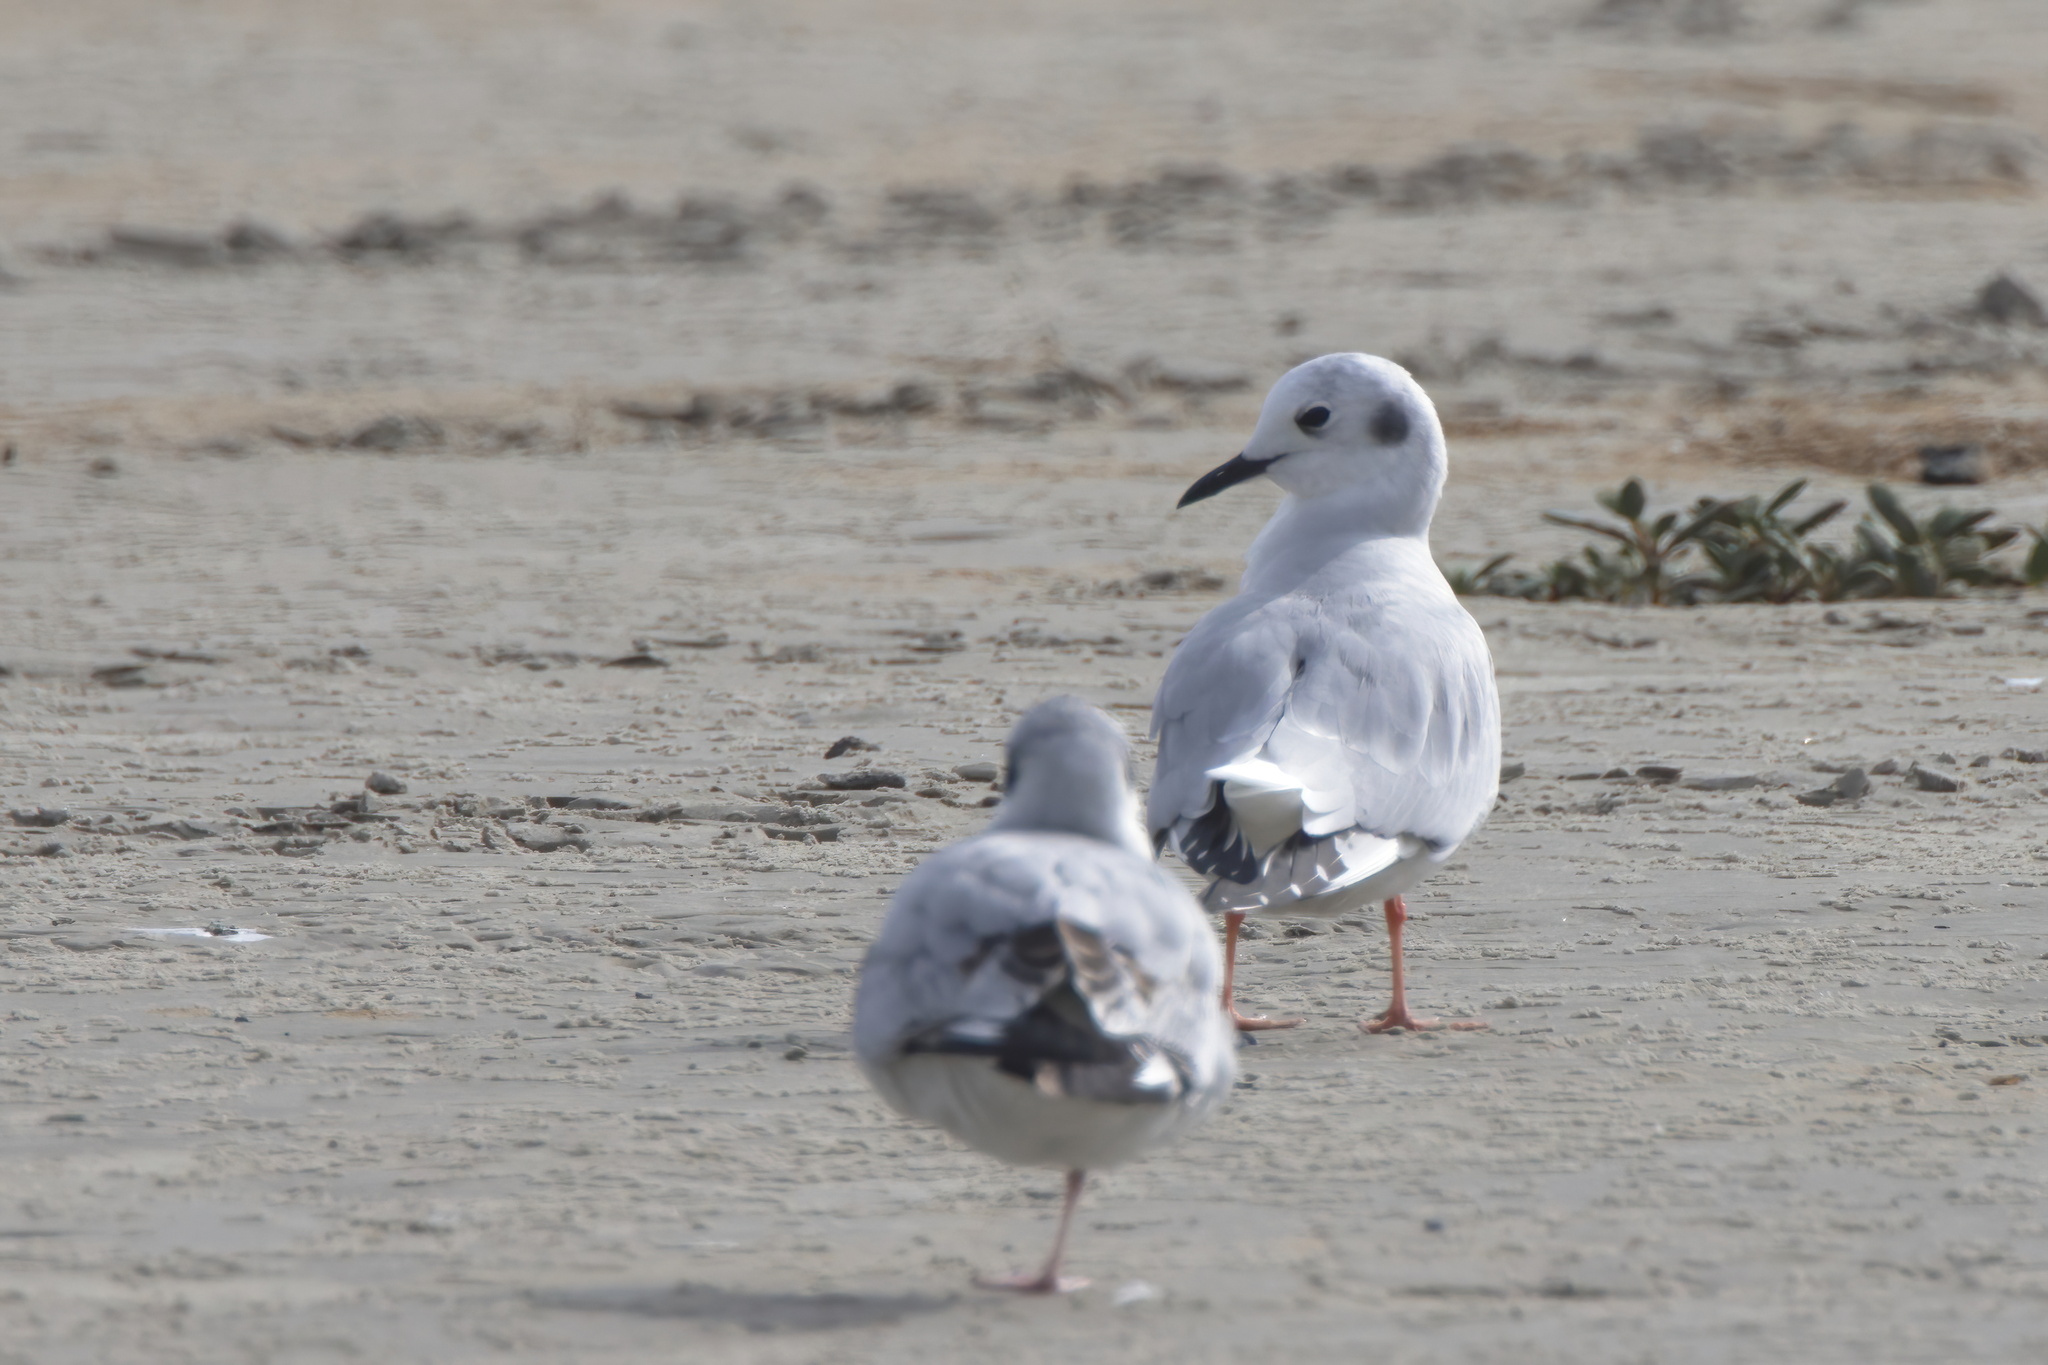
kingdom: Animalia
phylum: Chordata
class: Aves
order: Charadriiformes
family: Laridae
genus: Chroicocephalus
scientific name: Chroicocephalus philadelphia
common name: Bonaparte's gull
